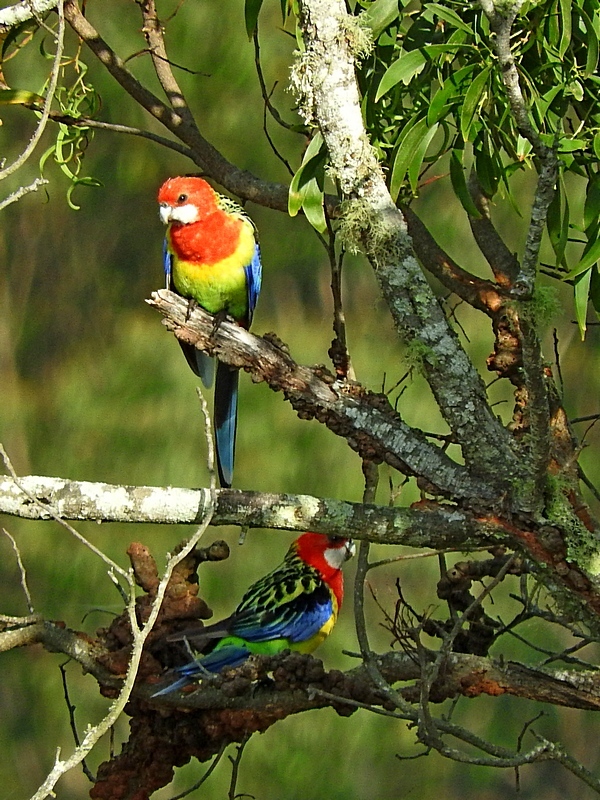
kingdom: Animalia
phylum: Chordata
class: Aves
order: Psittaciformes
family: Psittacidae
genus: Platycercus
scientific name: Platycercus eximius
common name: Eastern rosella
